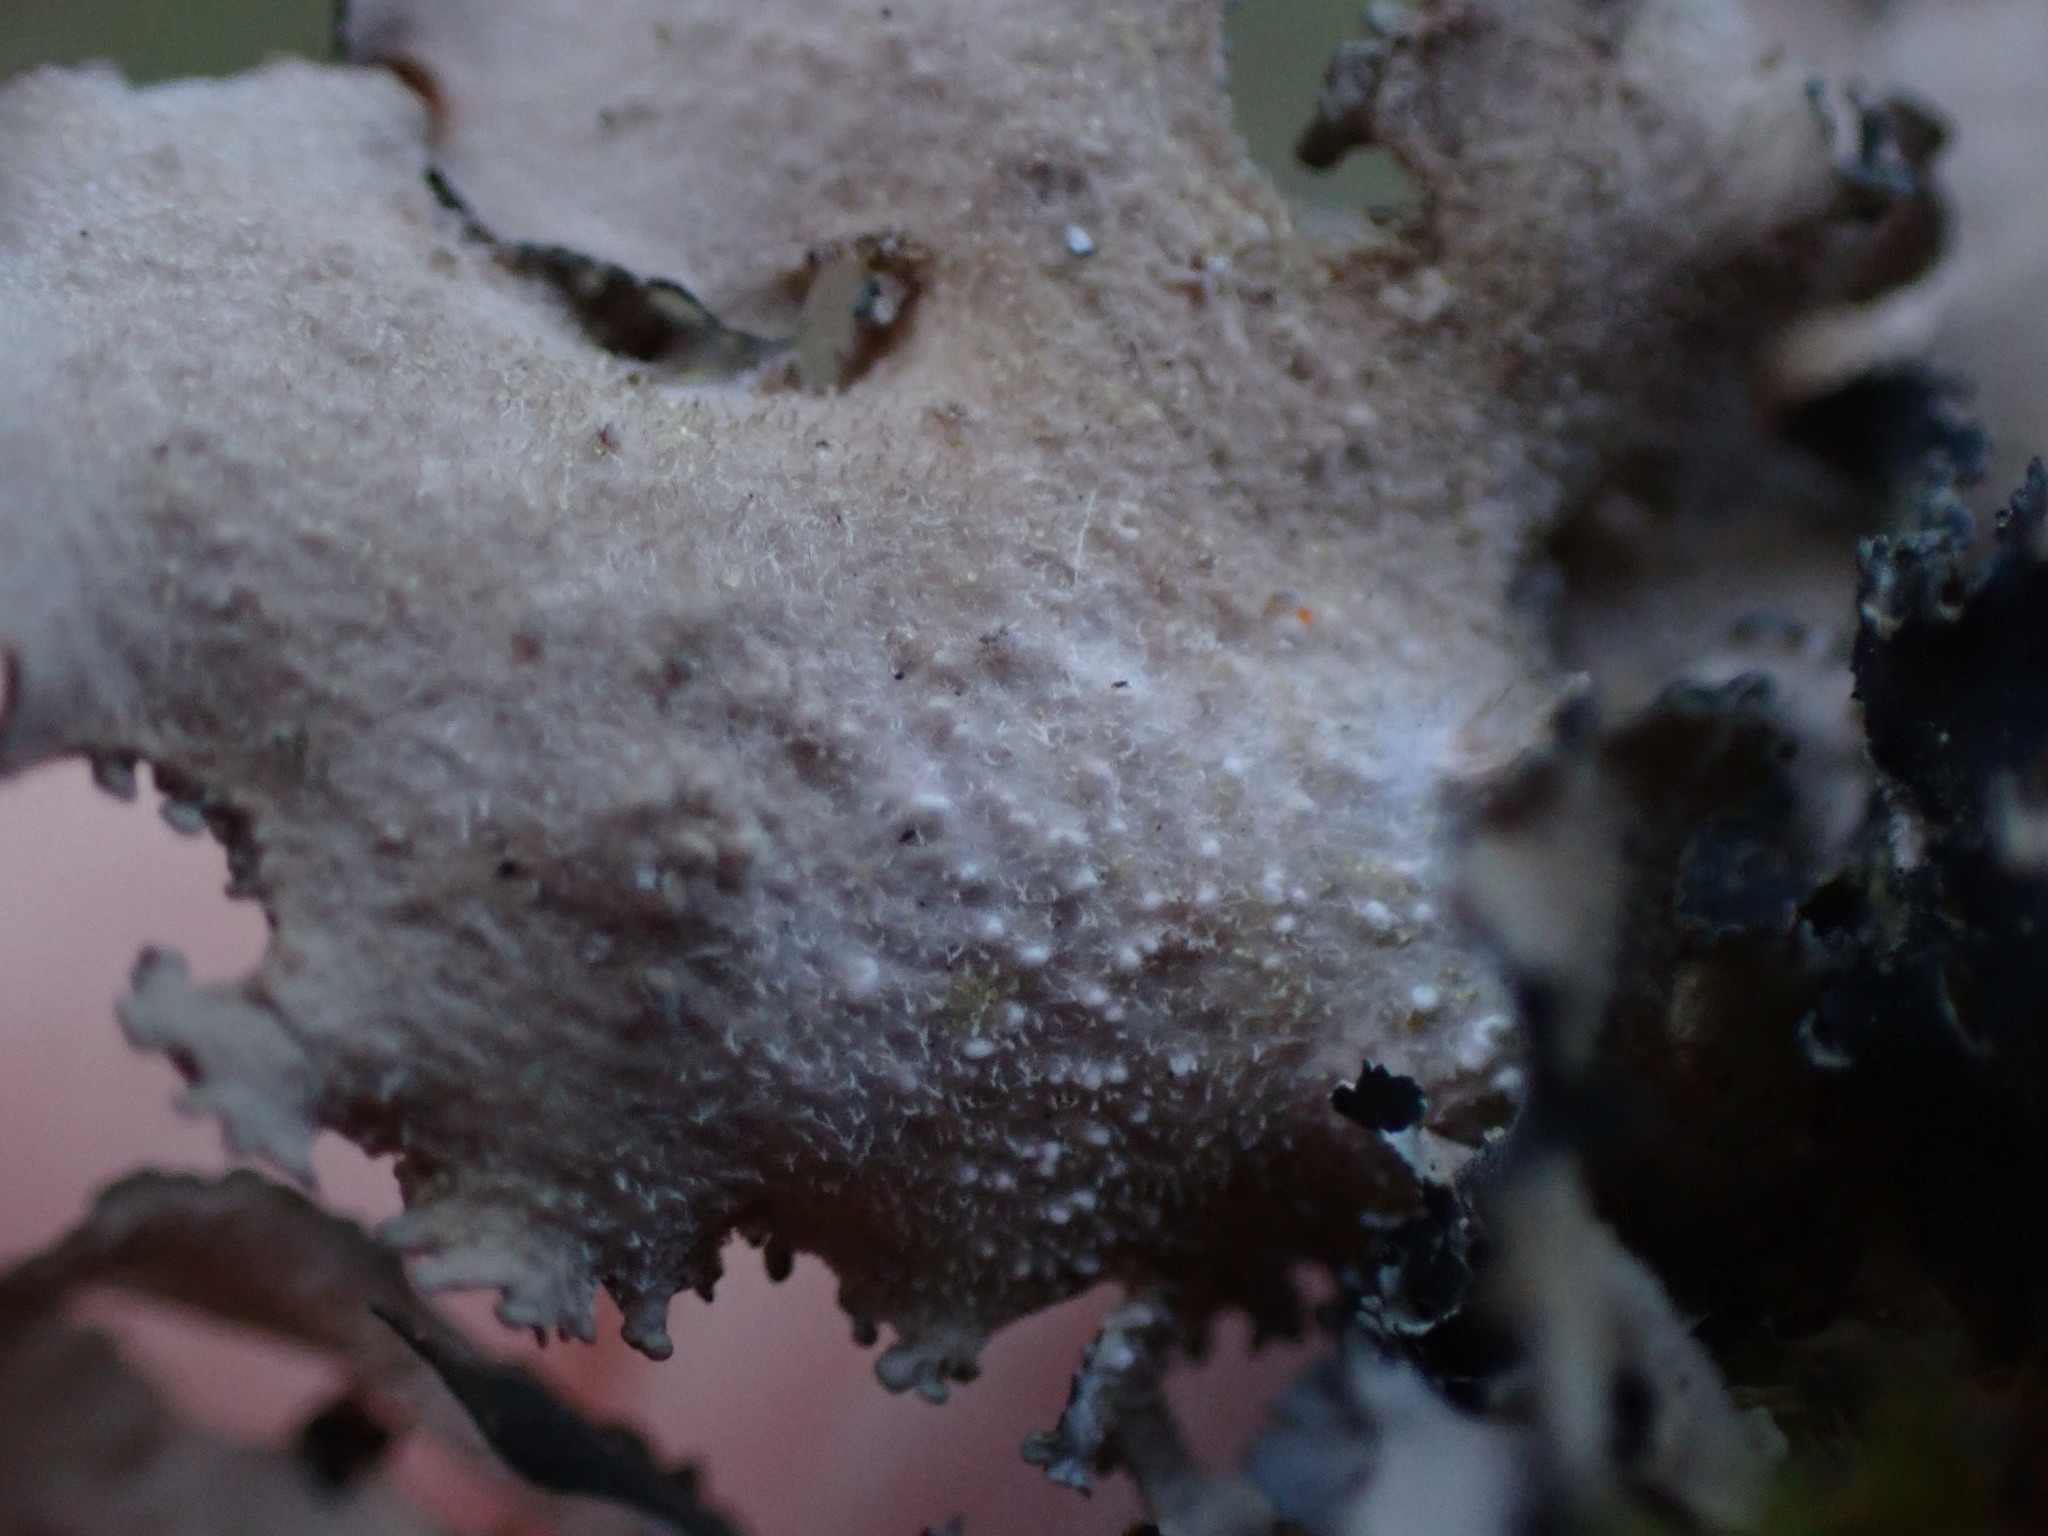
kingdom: Fungi
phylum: Ascomycota
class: Lecanoromycetes
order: Peltigerales
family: Nephromataceae
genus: Nephroma
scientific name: Nephroma resupinatum
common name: Pimpled kidney lichen
